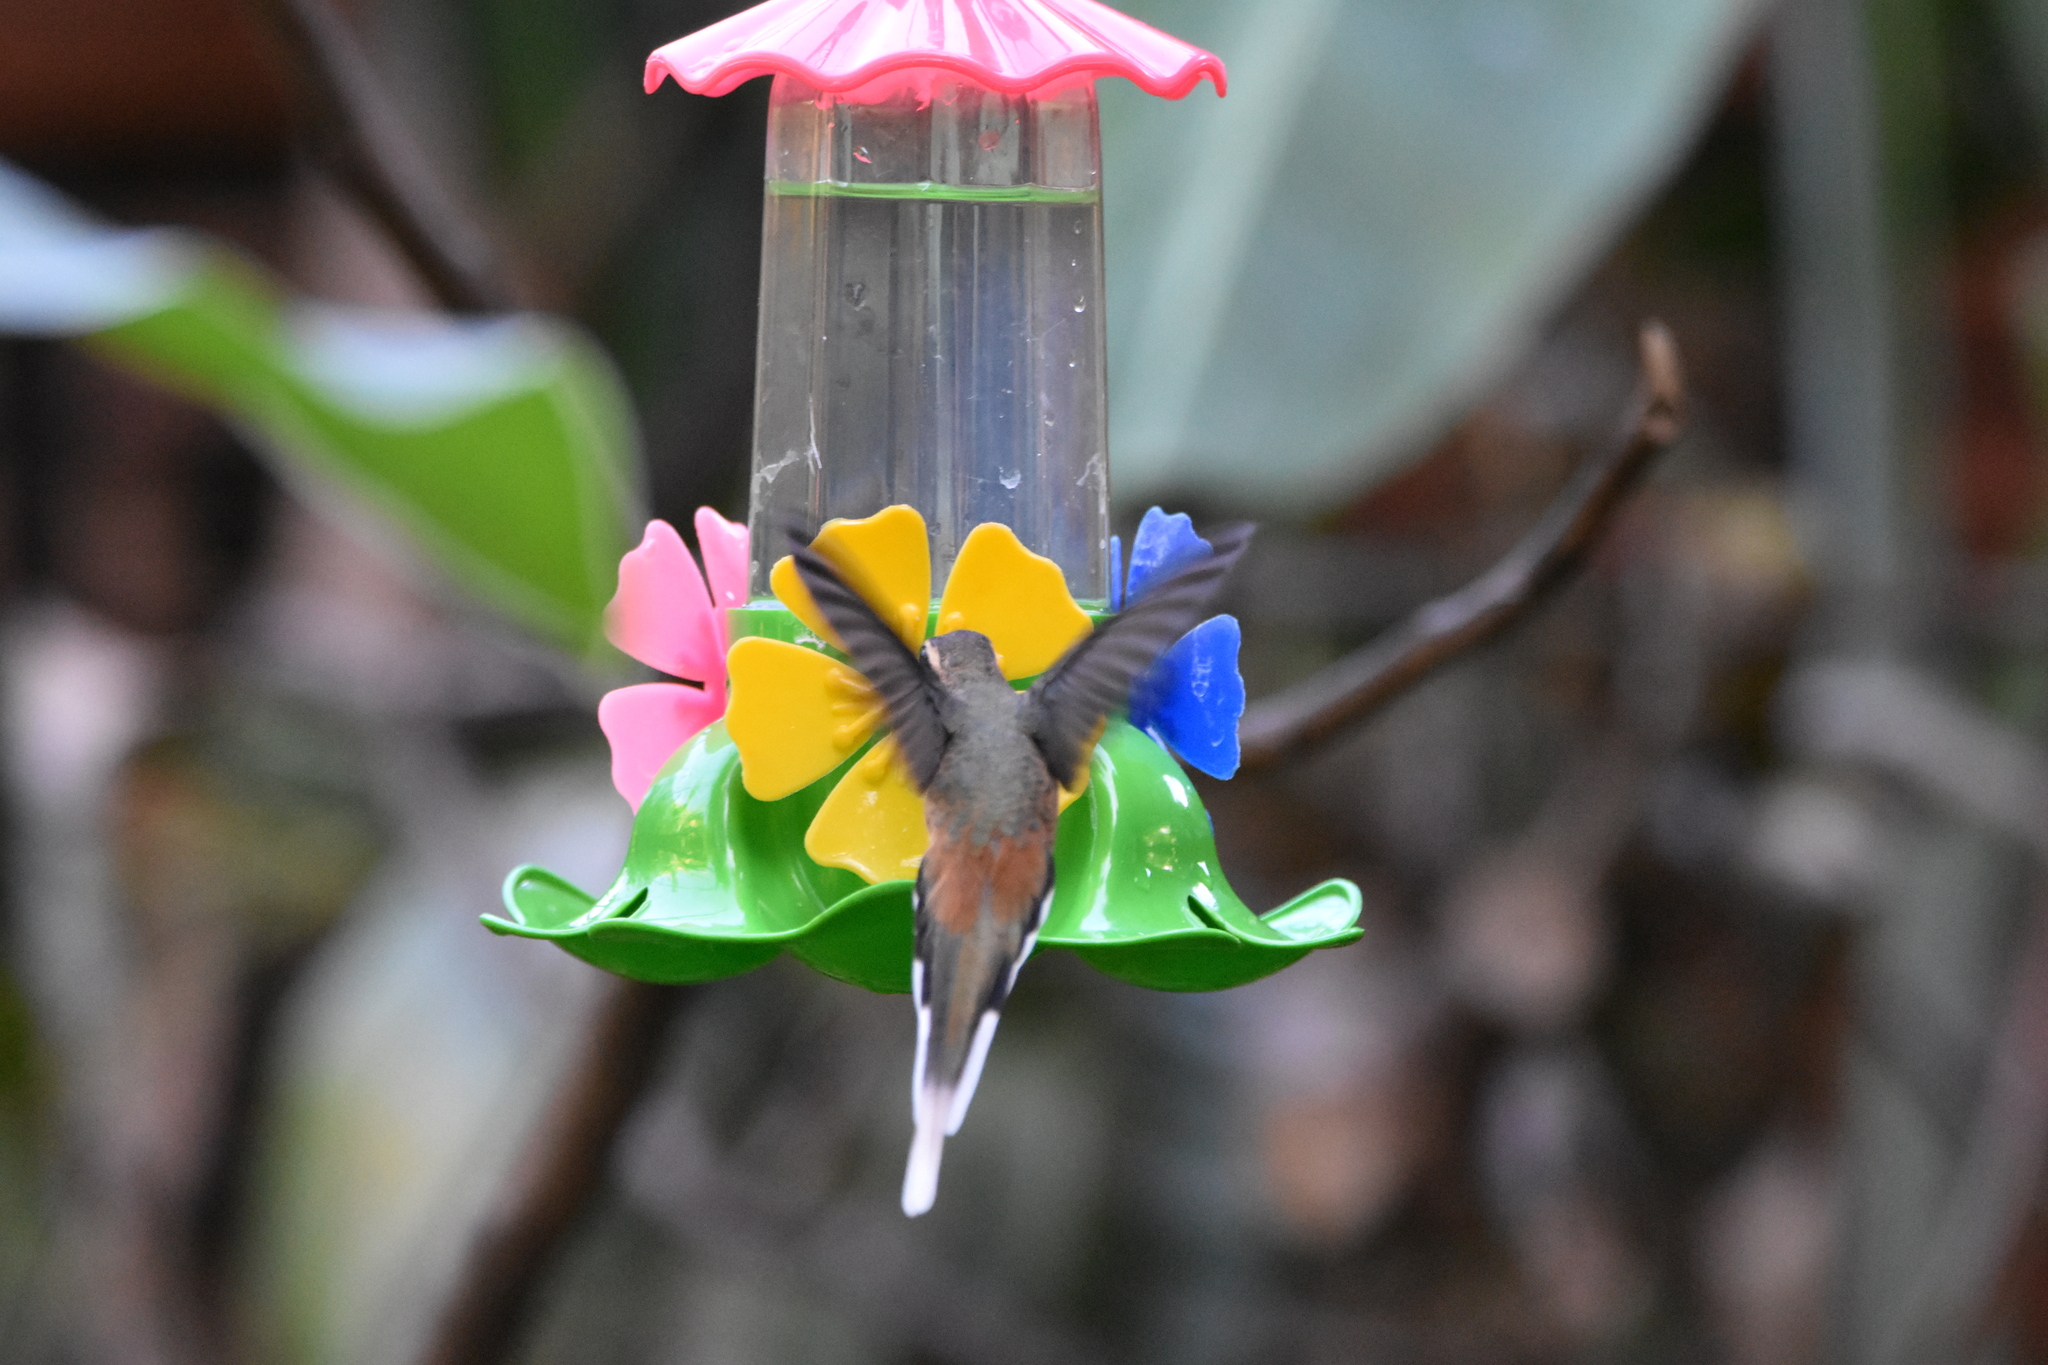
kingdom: Animalia
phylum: Chordata
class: Aves
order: Apodiformes
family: Trochilidae
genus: Phaethornis
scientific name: Phaethornis pretrei
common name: Planalto hermit
